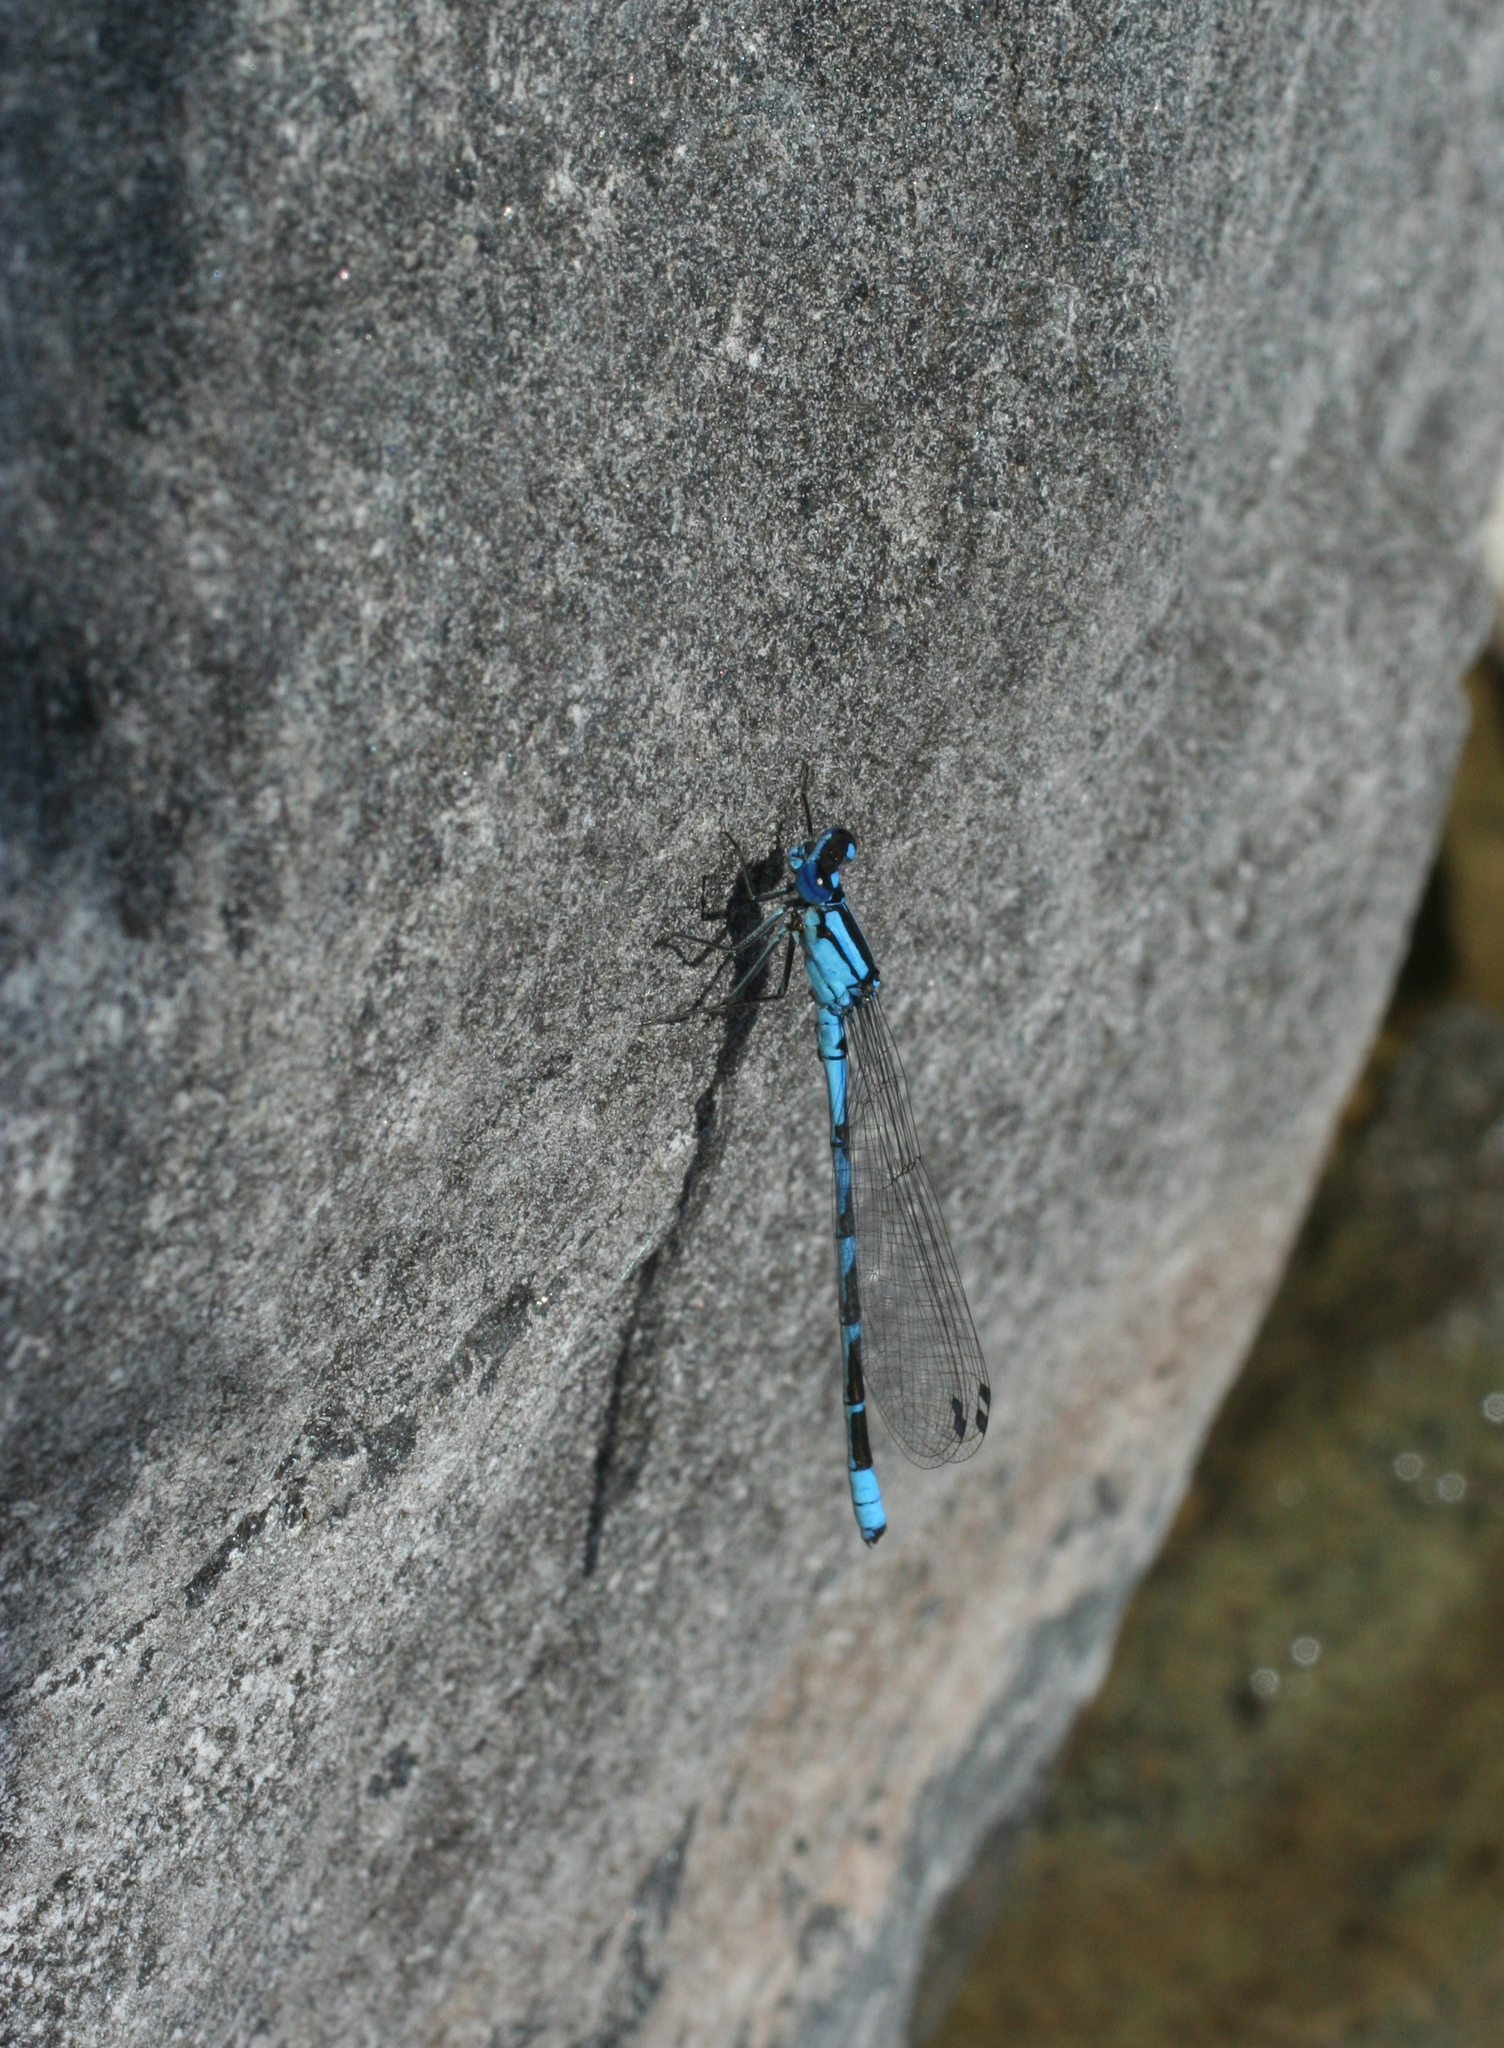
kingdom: Animalia
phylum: Arthropoda
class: Insecta
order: Odonata
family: Coenagrionidae
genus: Enallagma
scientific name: Enallagma cyathigerum
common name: Common blue damselfly
